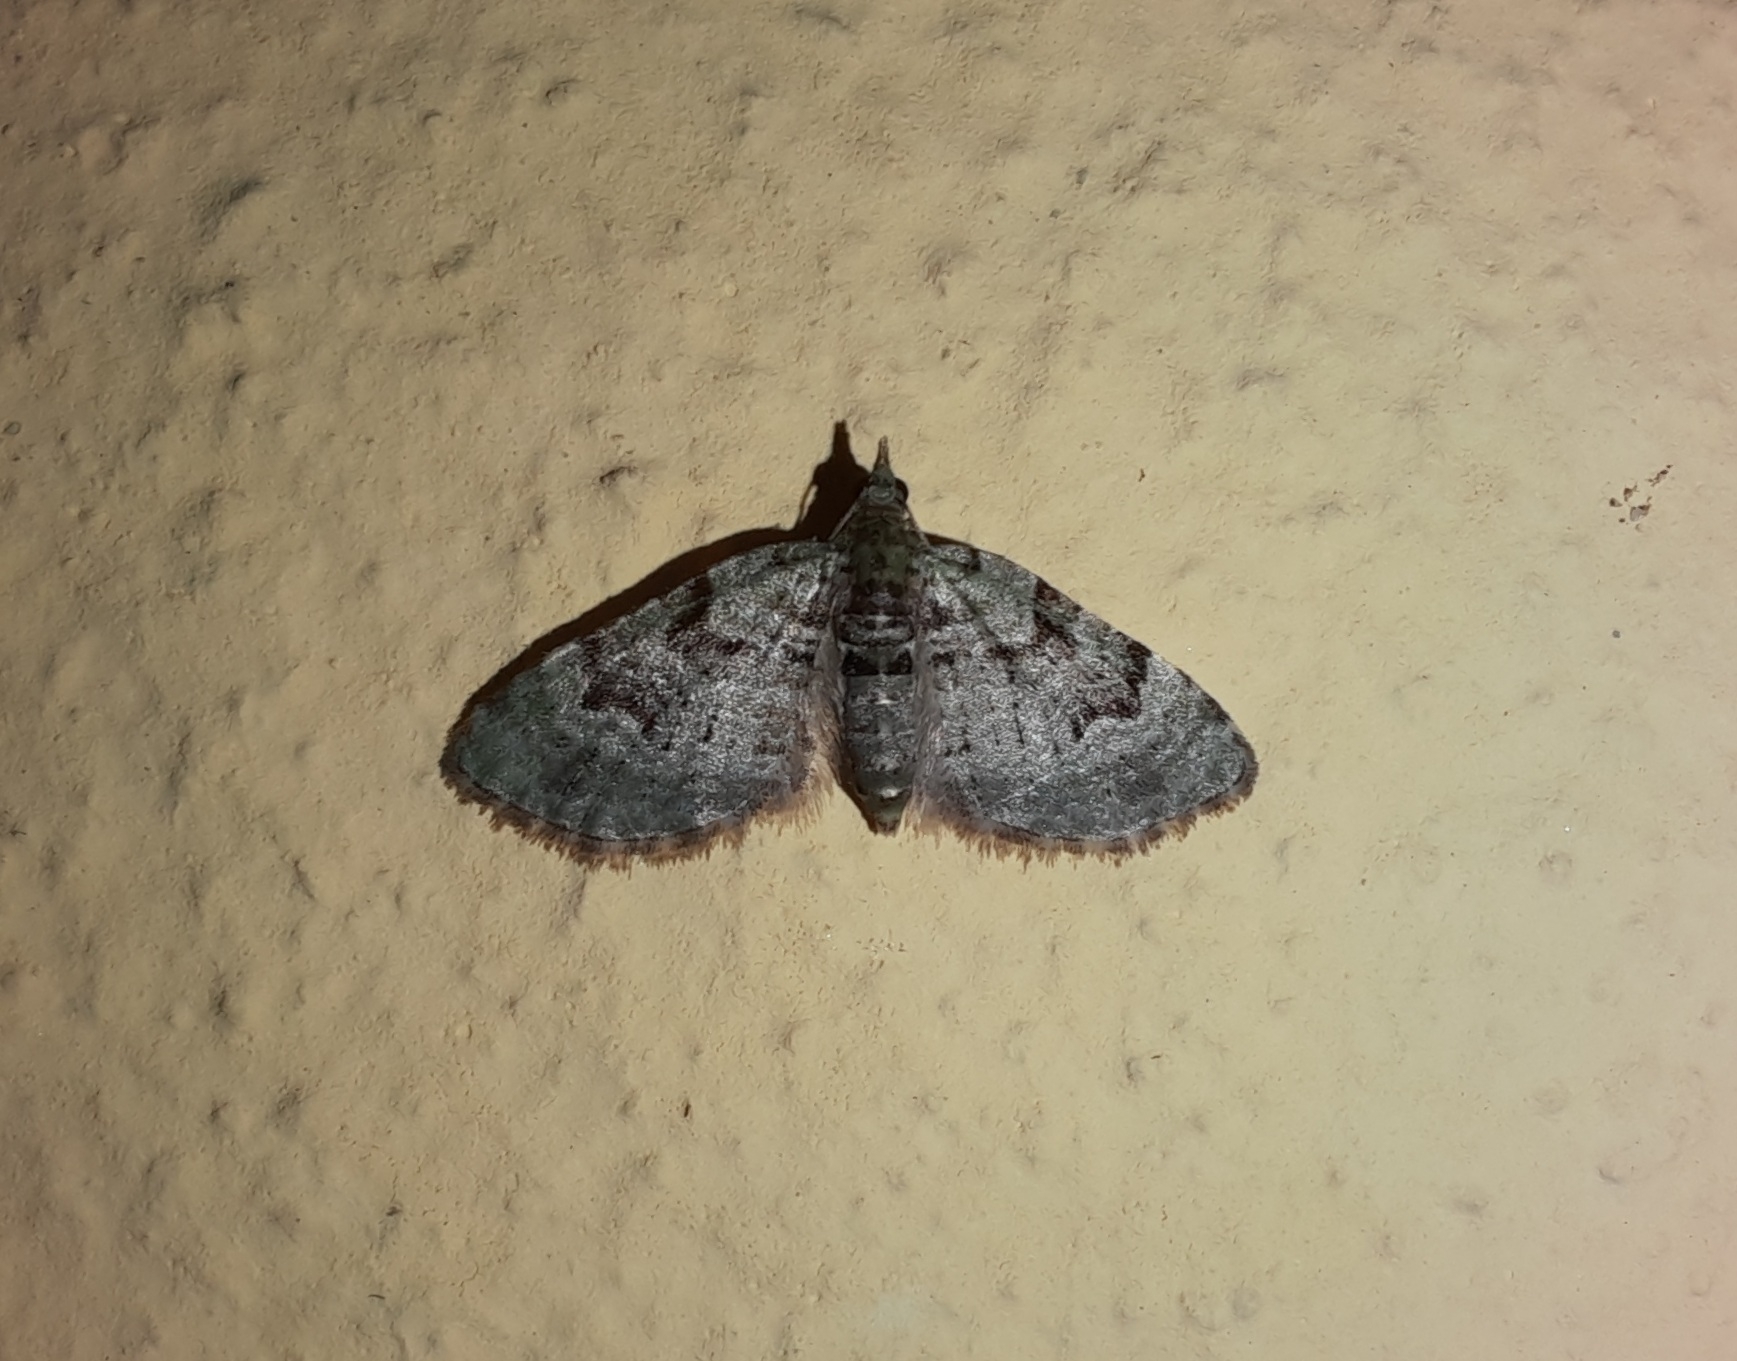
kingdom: Animalia
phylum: Arthropoda
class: Insecta
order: Lepidoptera
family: Geometridae
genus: Chloroclystis
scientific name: Chloroclystis v-ata
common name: V-pug
